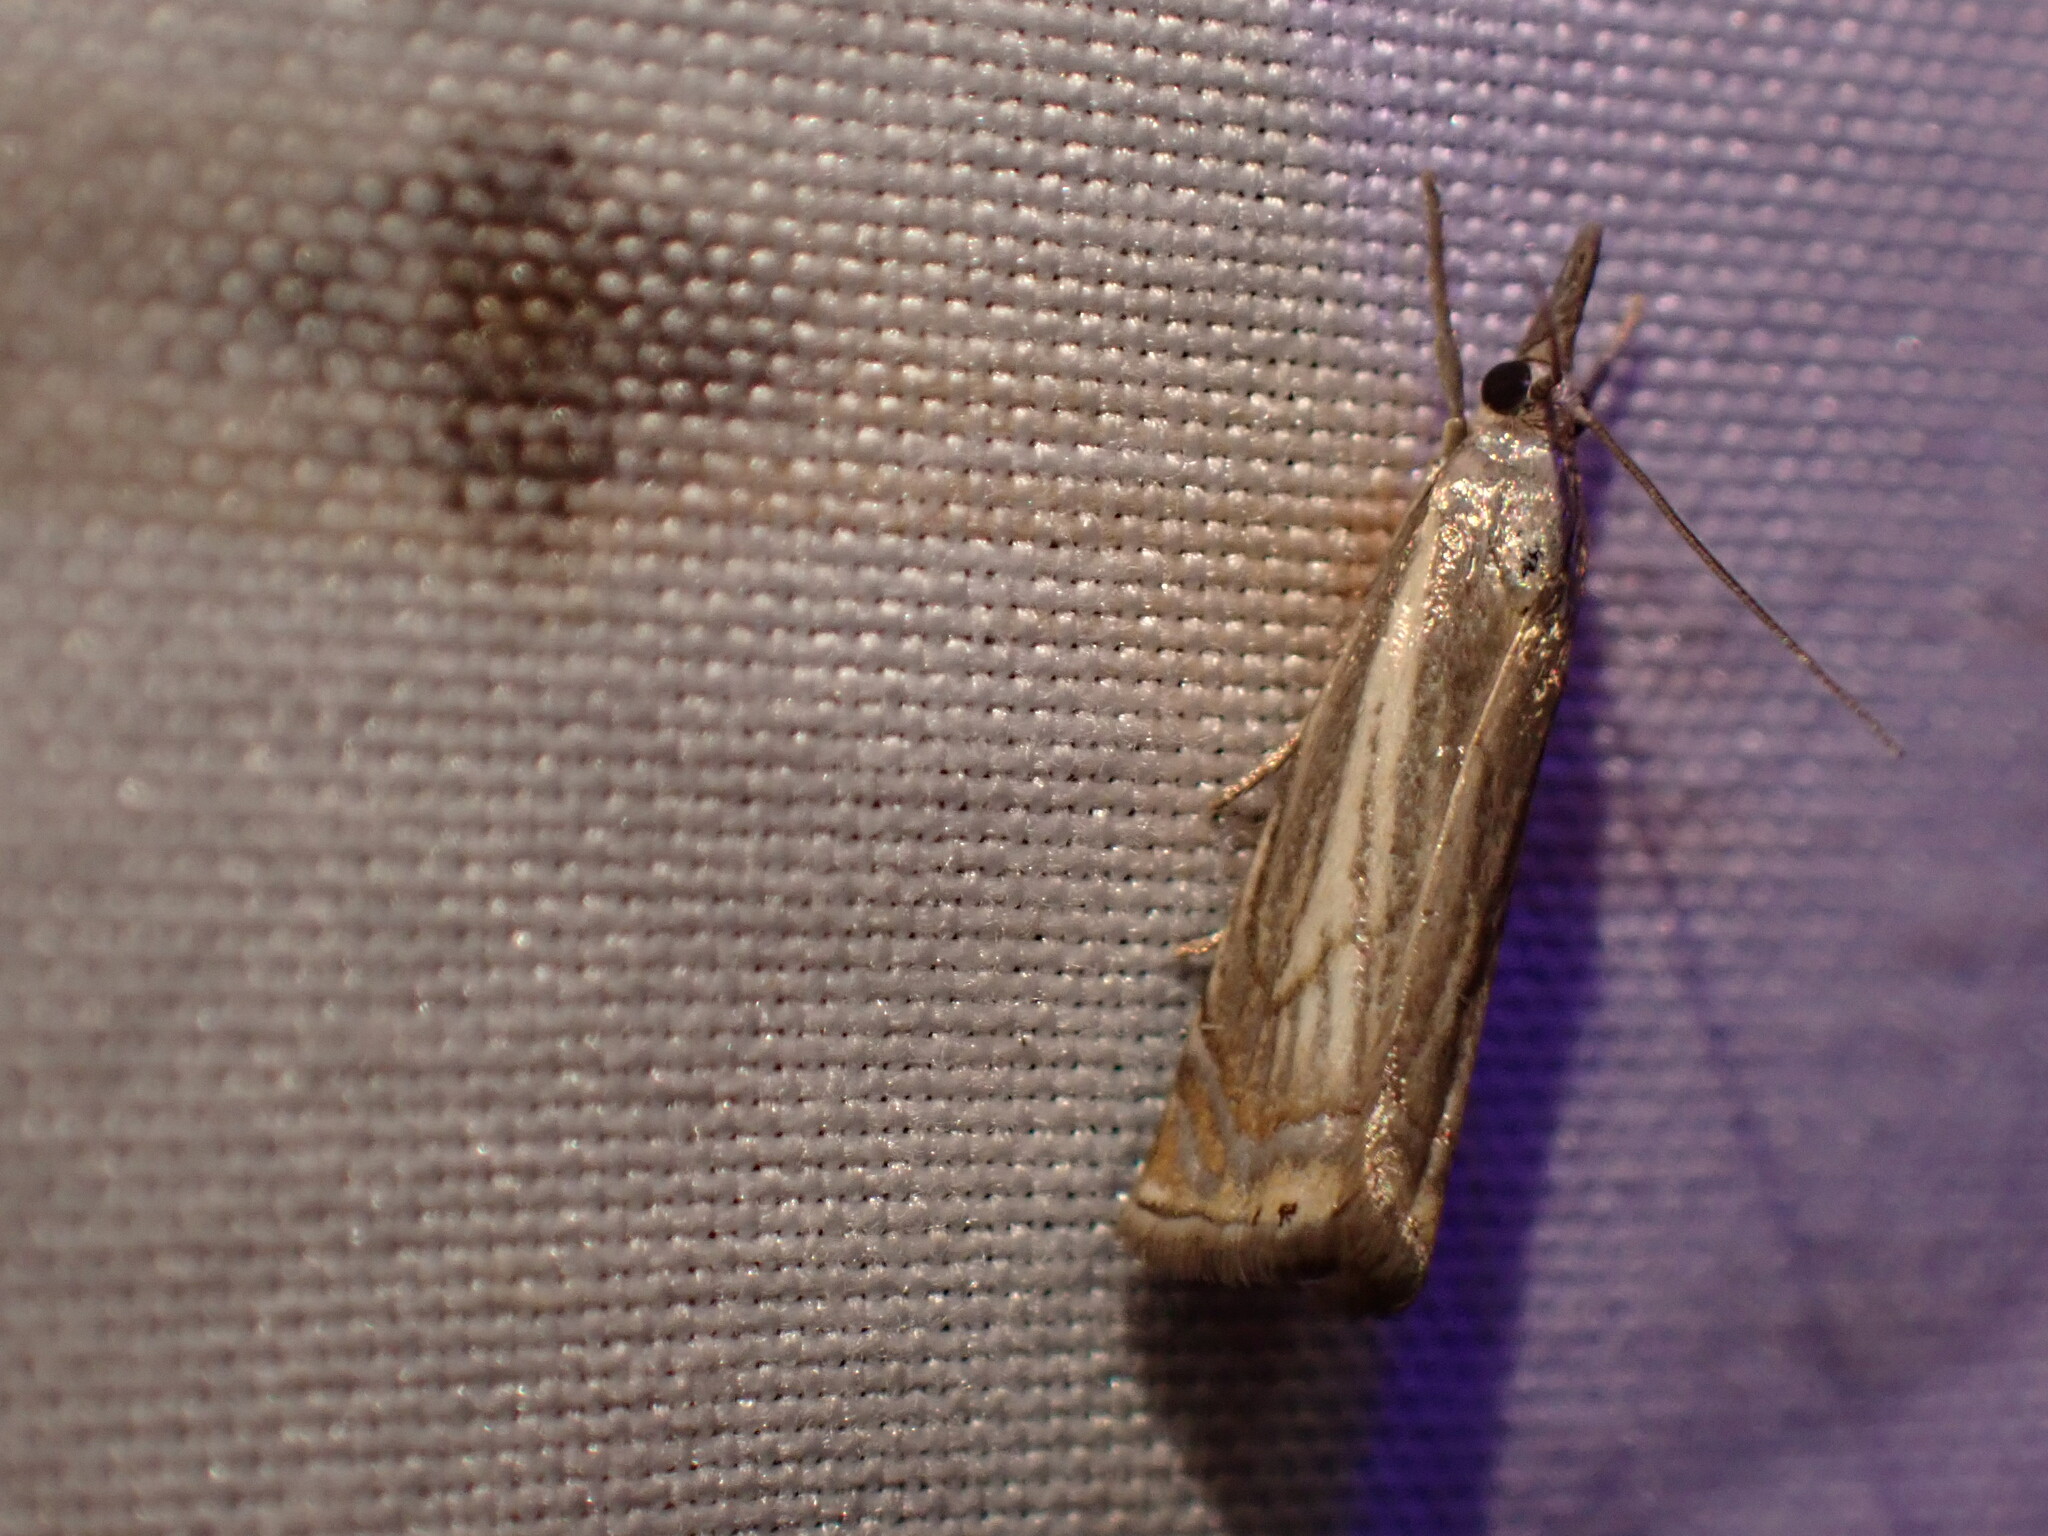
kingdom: Animalia
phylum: Arthropoda
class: Insecta
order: Lepidoptera
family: Crambidae
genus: Chrysoteuchia
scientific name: Chrysoteuchia topiarius
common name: Topiary grass-veneer
